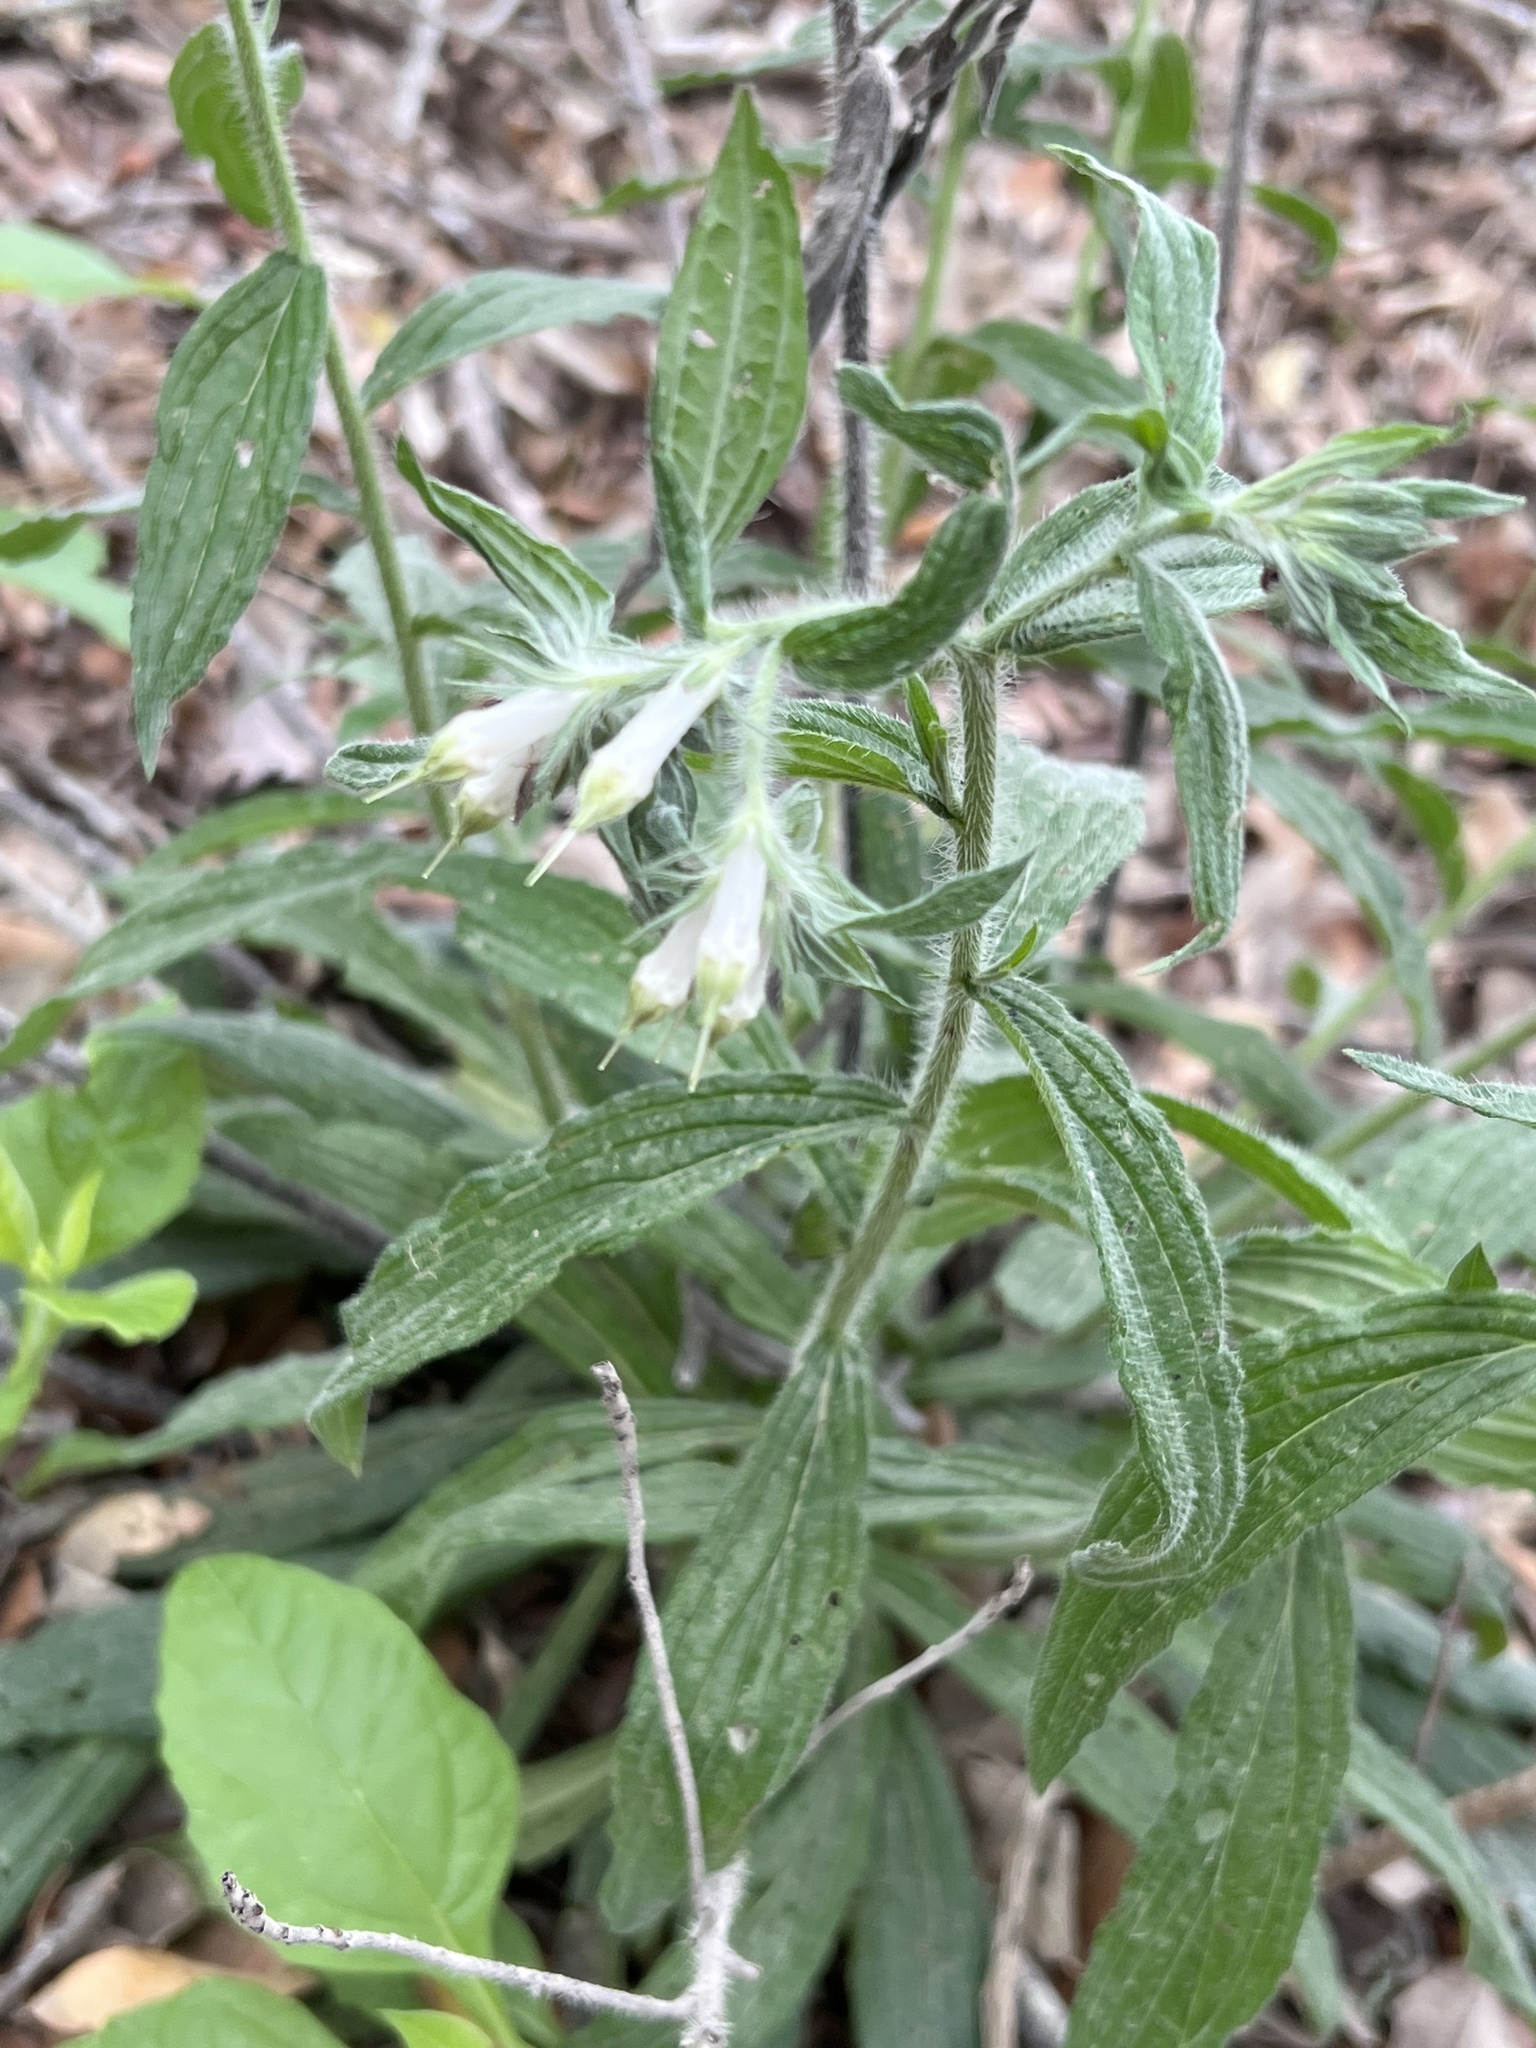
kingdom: Plantae
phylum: Tracheophyta
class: Magnoliopsida
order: Boraginales
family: Boraginaceae
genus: Lithospermum
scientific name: Lithospermum caroliniense
